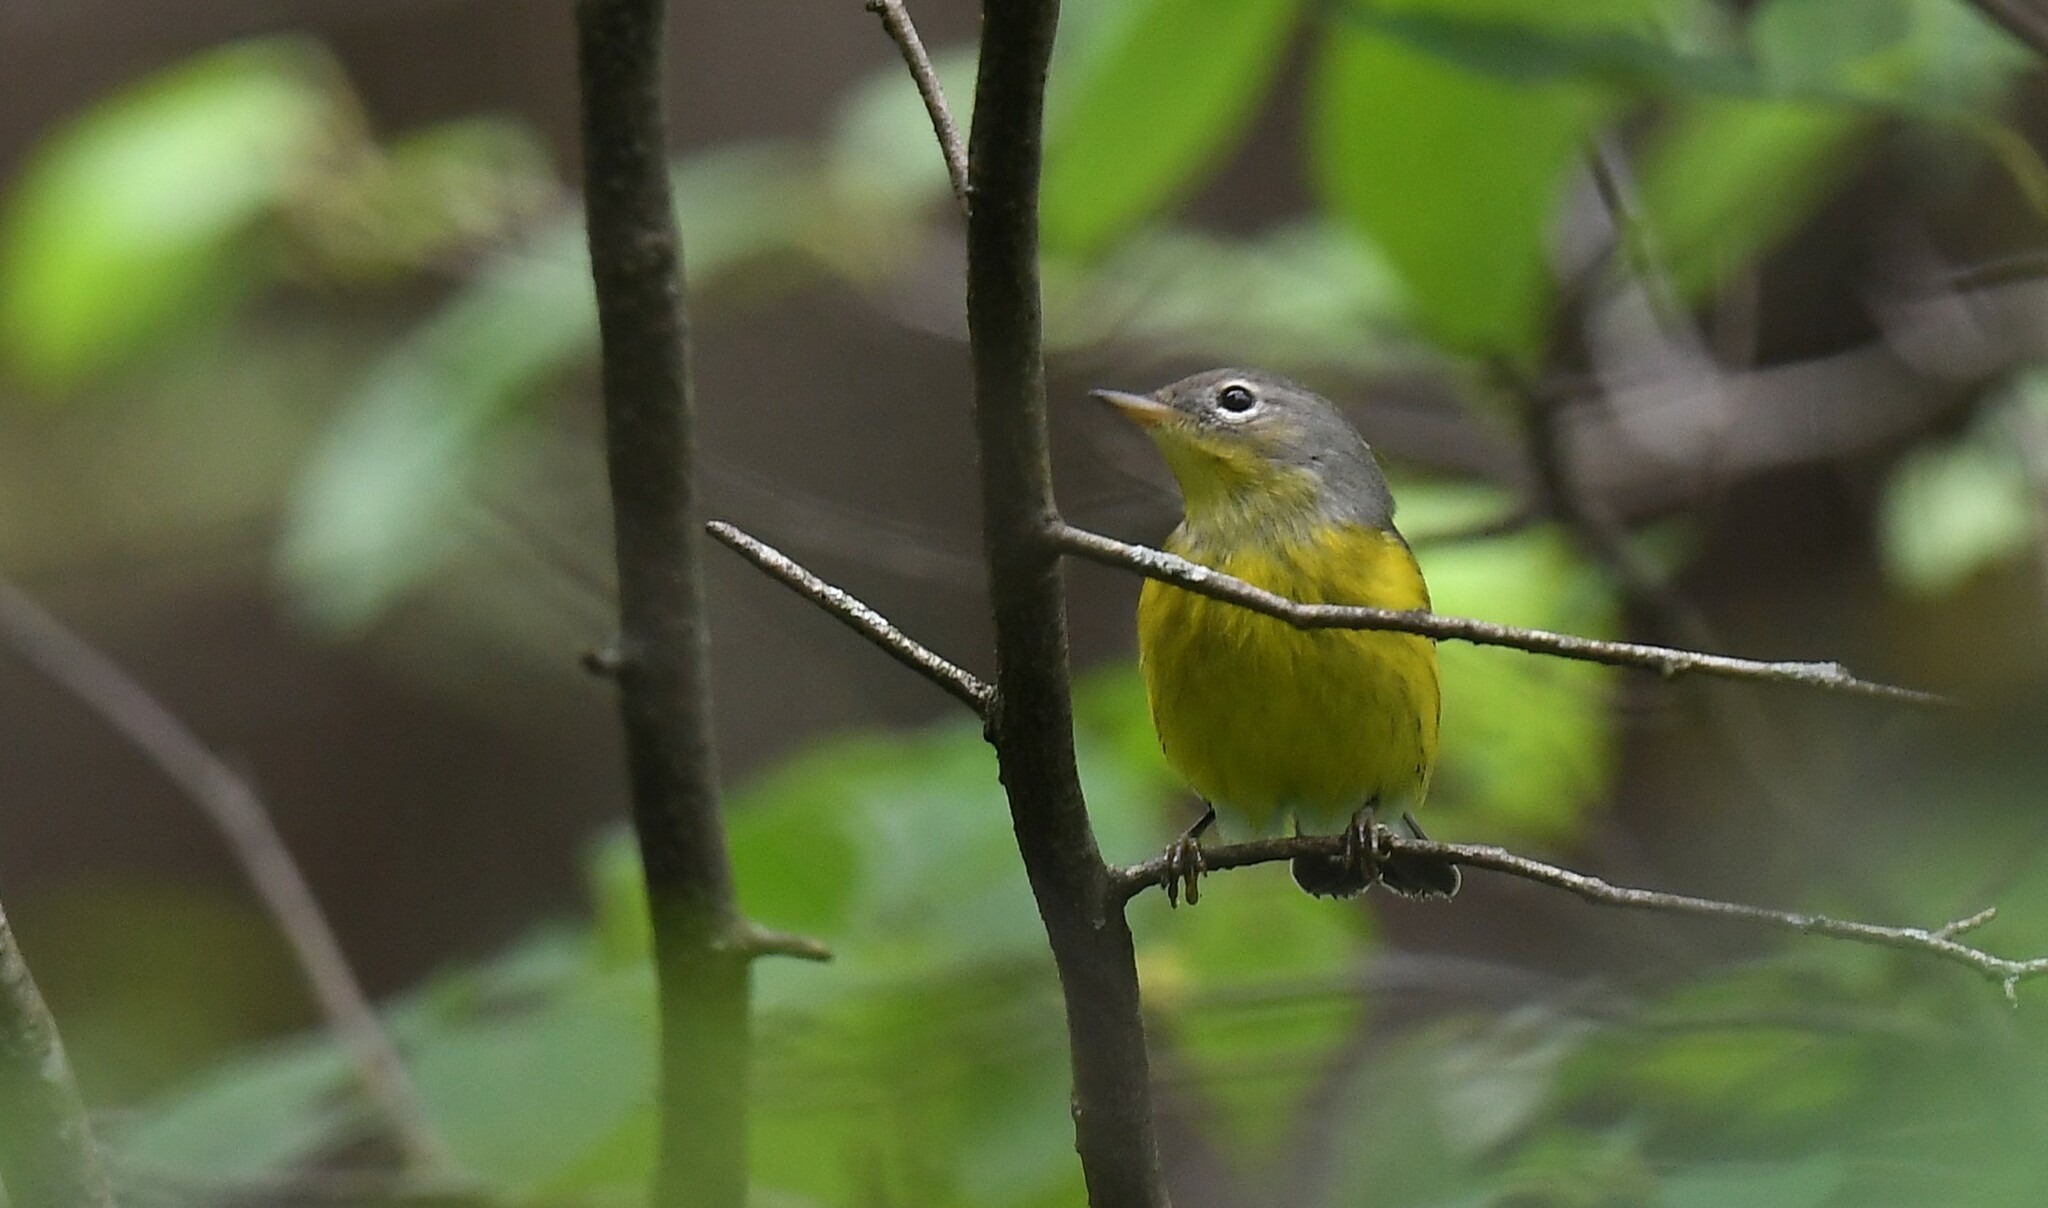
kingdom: Animalia
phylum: Chordata
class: Aves
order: Passeriformes
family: Parulidae
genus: Setophaga
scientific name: Setophaga magnolia
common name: Magnolia warbler
